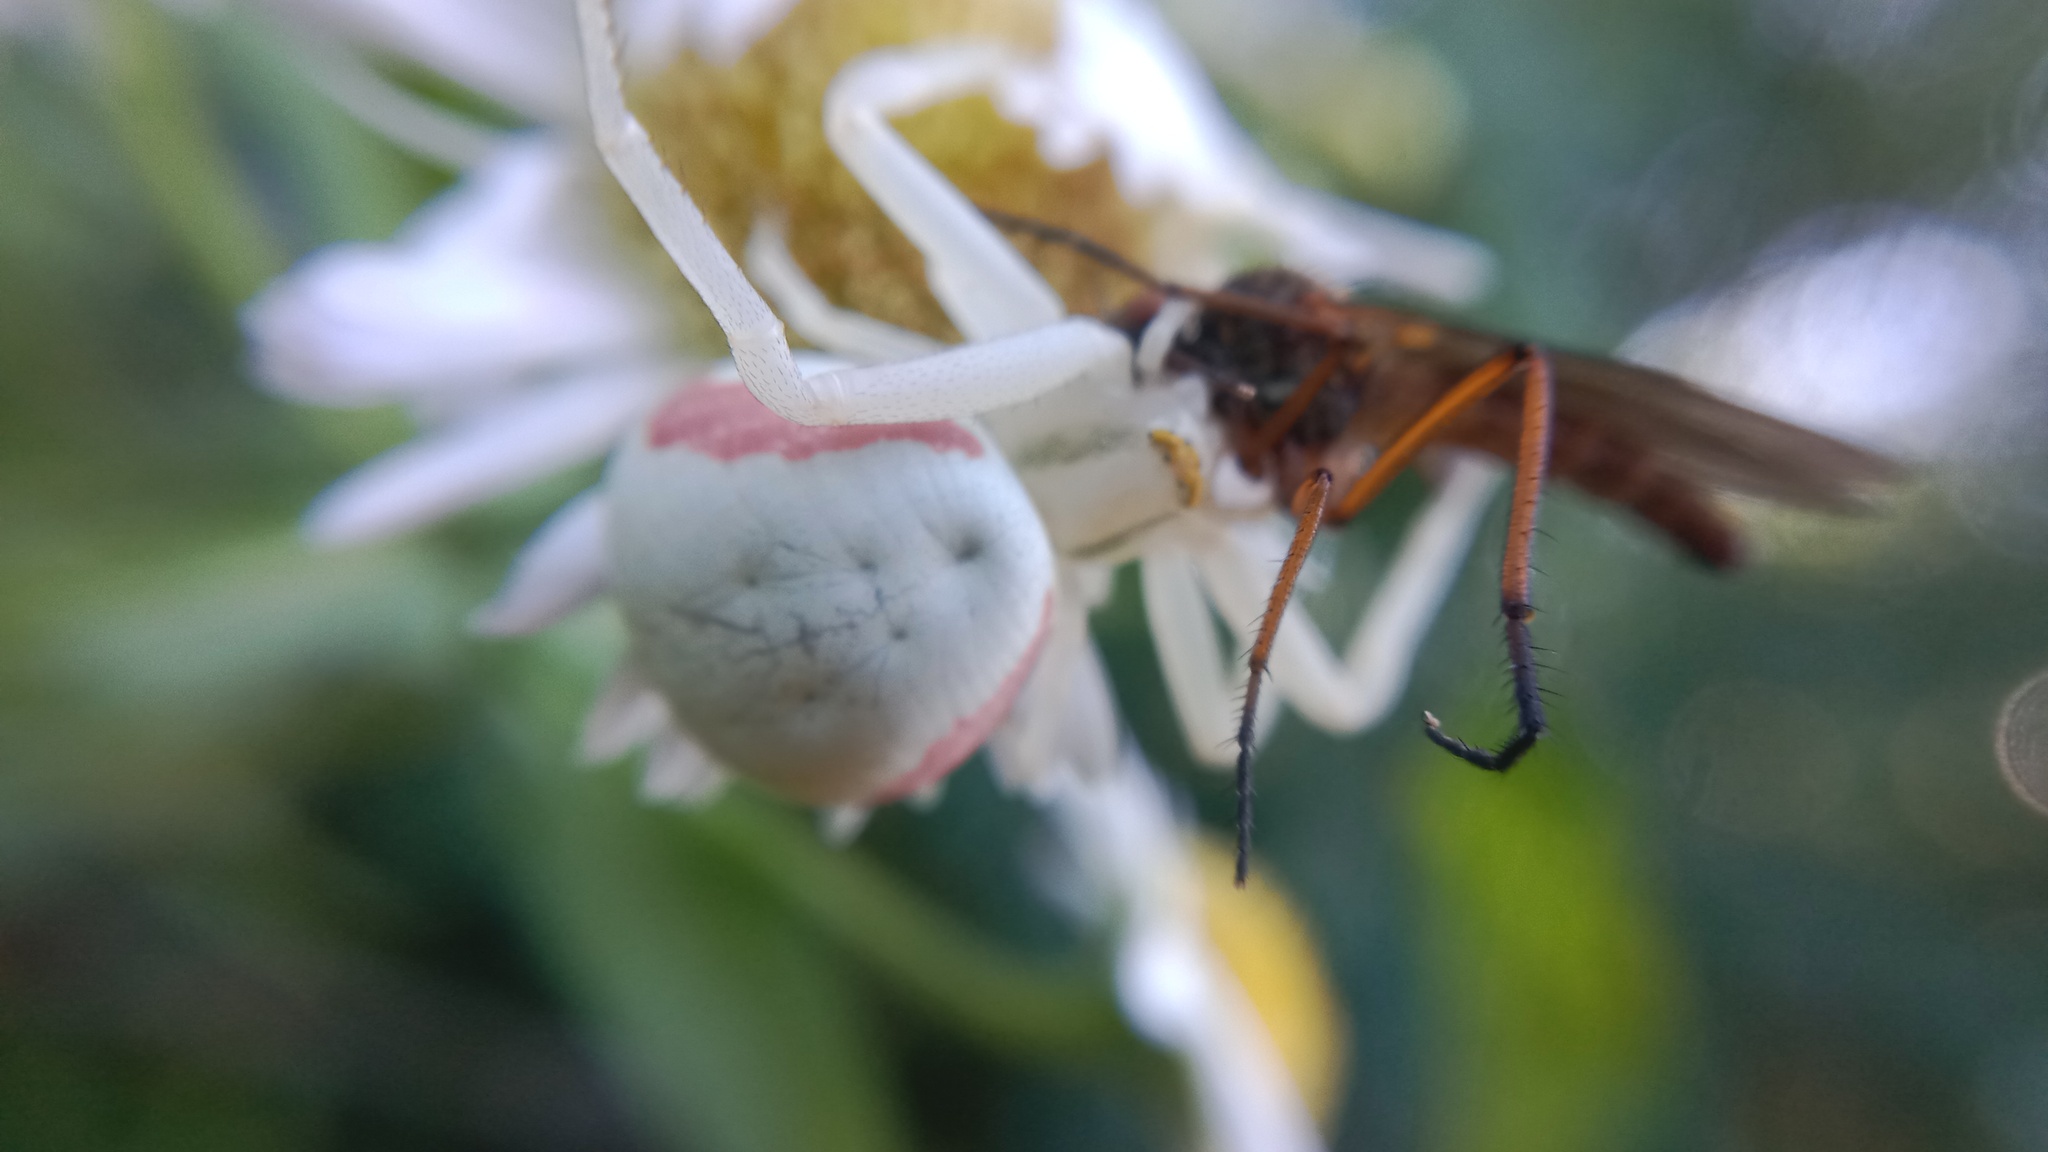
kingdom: Animalia
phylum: Arthropoda
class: Arachnida
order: Araneae
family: Thomisidae
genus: Misumena
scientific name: Misumena vatia
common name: Goldenrod crab spider
